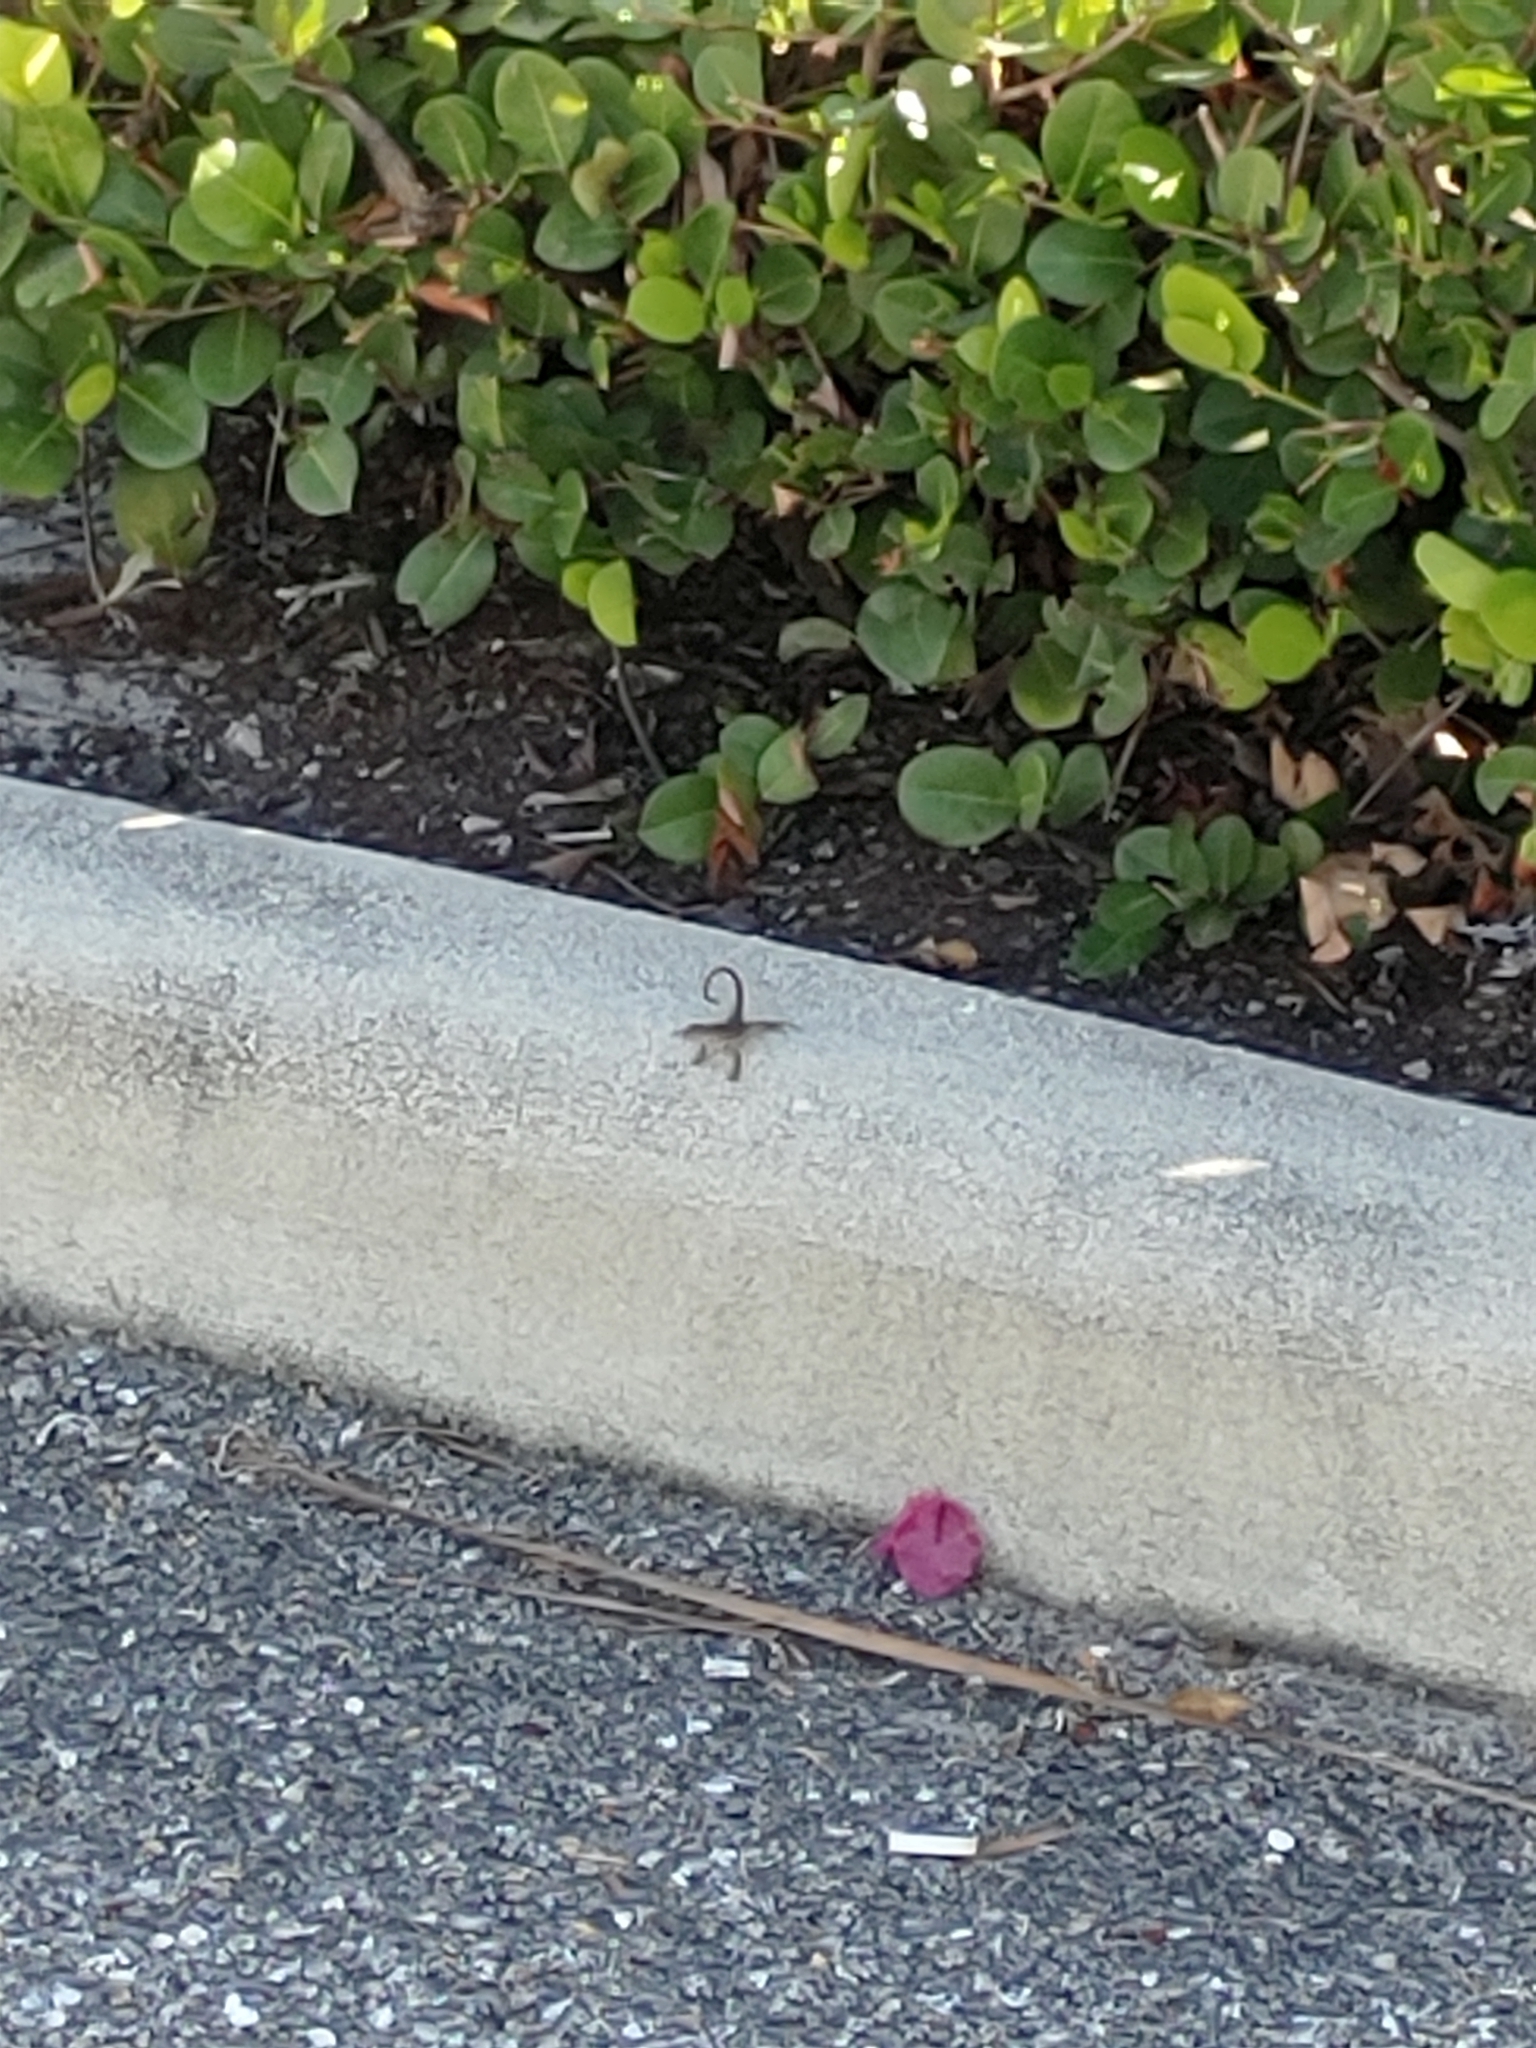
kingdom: Animalia
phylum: Chordata
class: Squamata
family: Leiocephalidae
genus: Leiocephalus
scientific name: Leiocephalus carinatus
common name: Northern curly-tailed lizard
